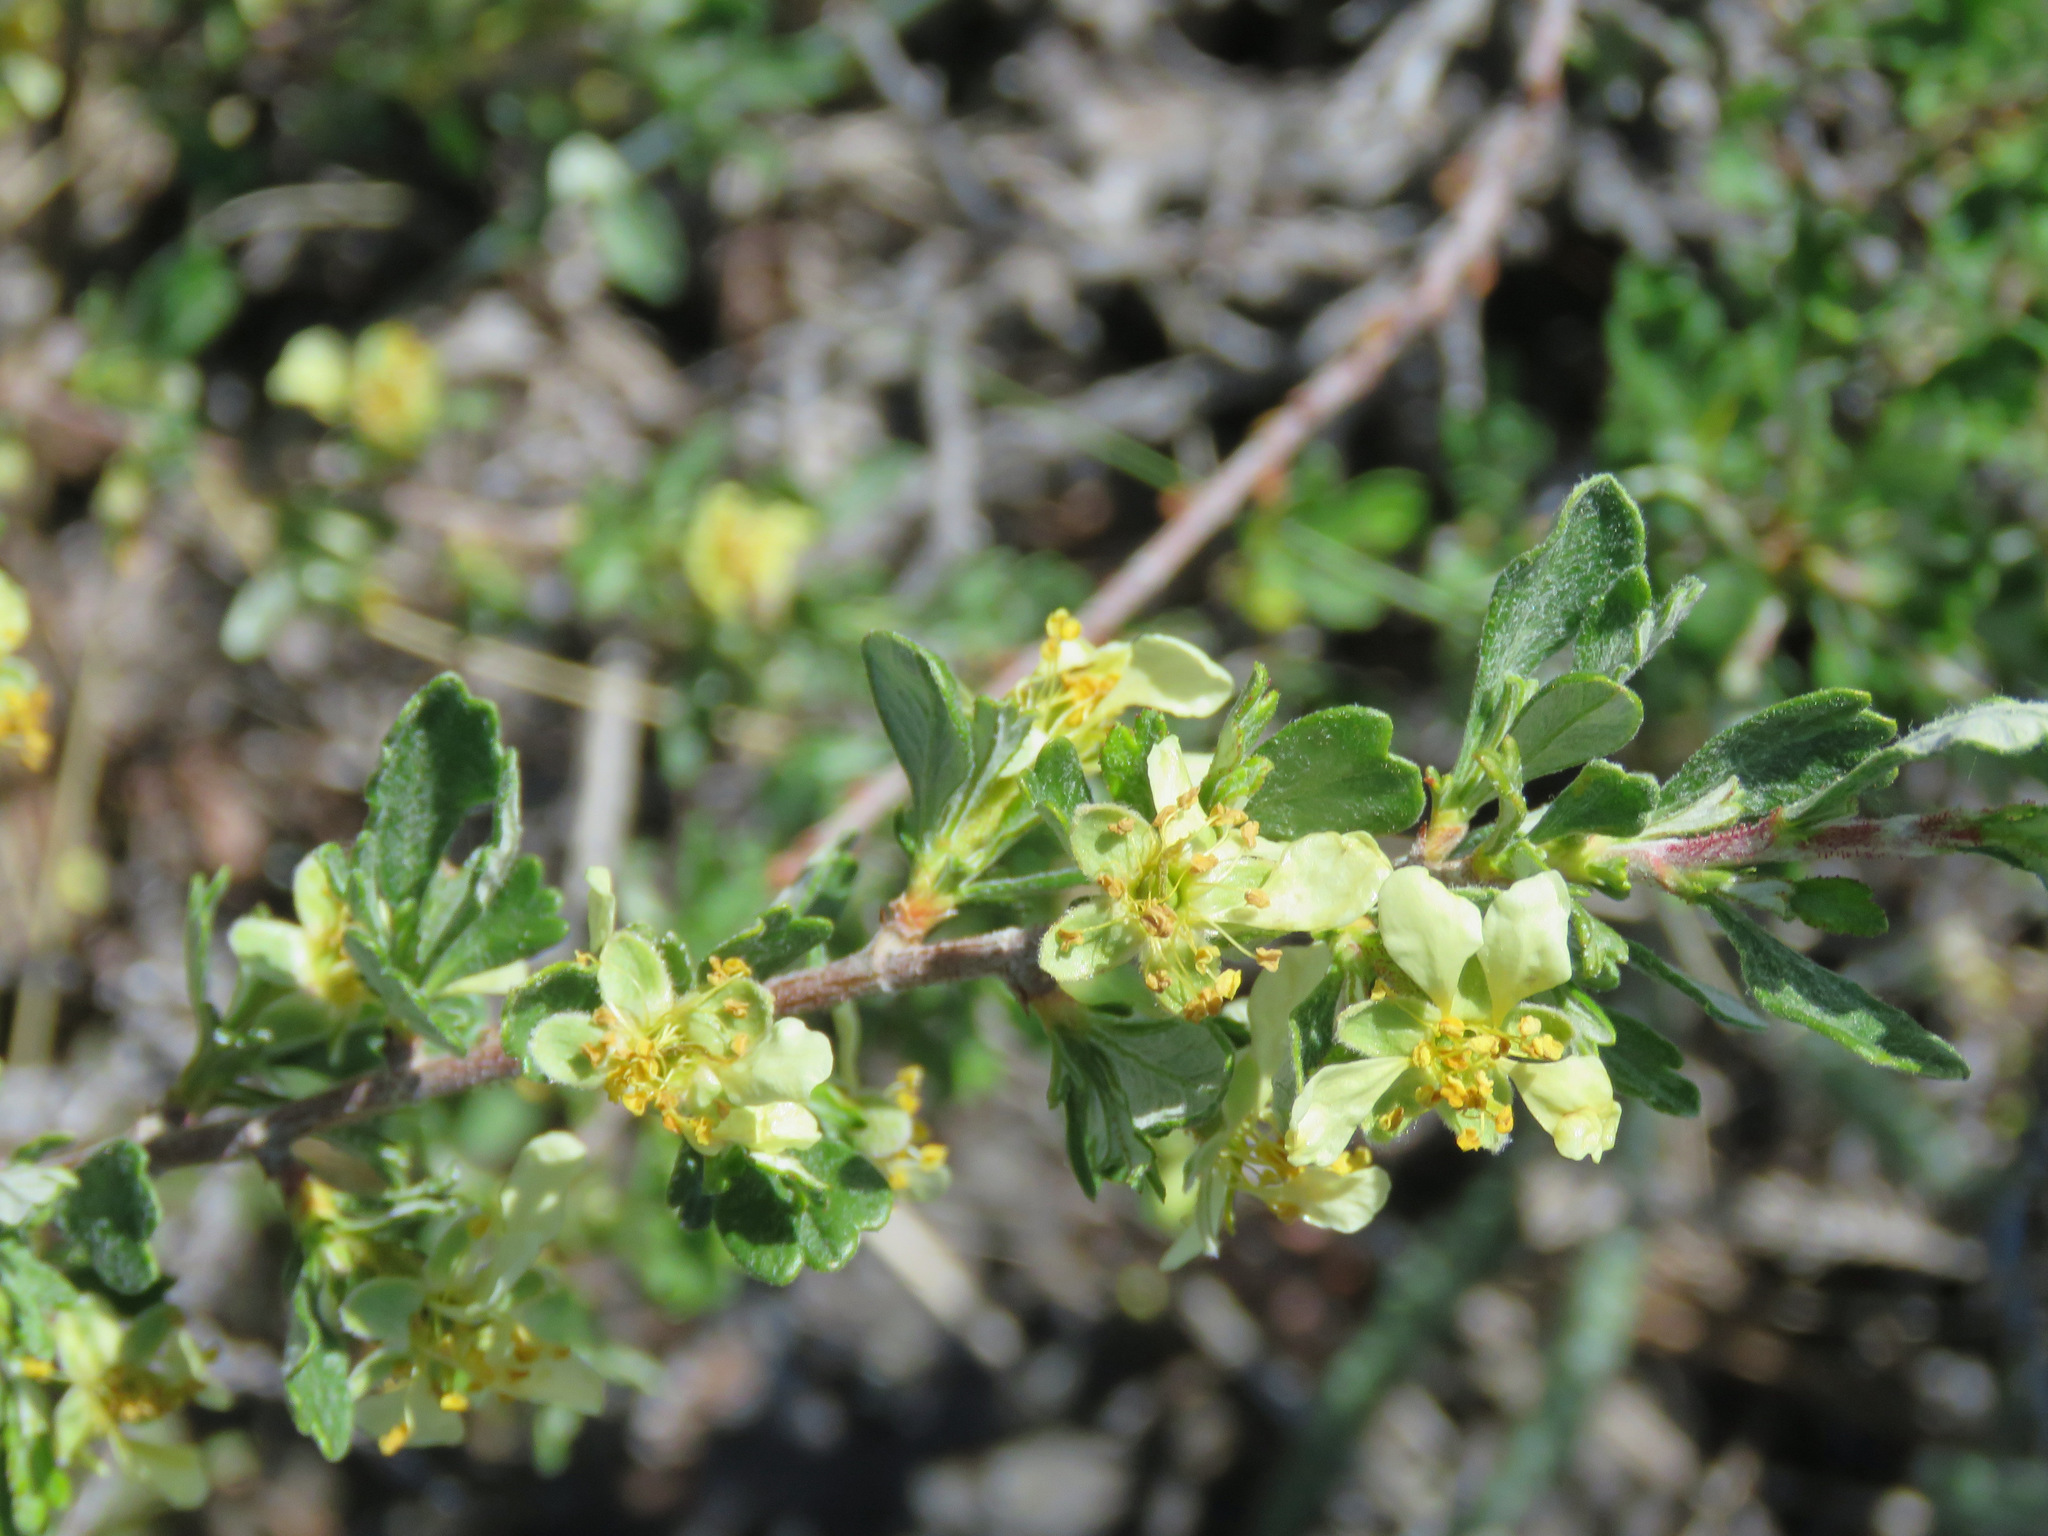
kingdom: Plantae
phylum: Tracheophyta
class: Magnoliopsida
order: Rosales
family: Rosaceae
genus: Purshia
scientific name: Purshia tridentata
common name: Antelope bitterbrush
